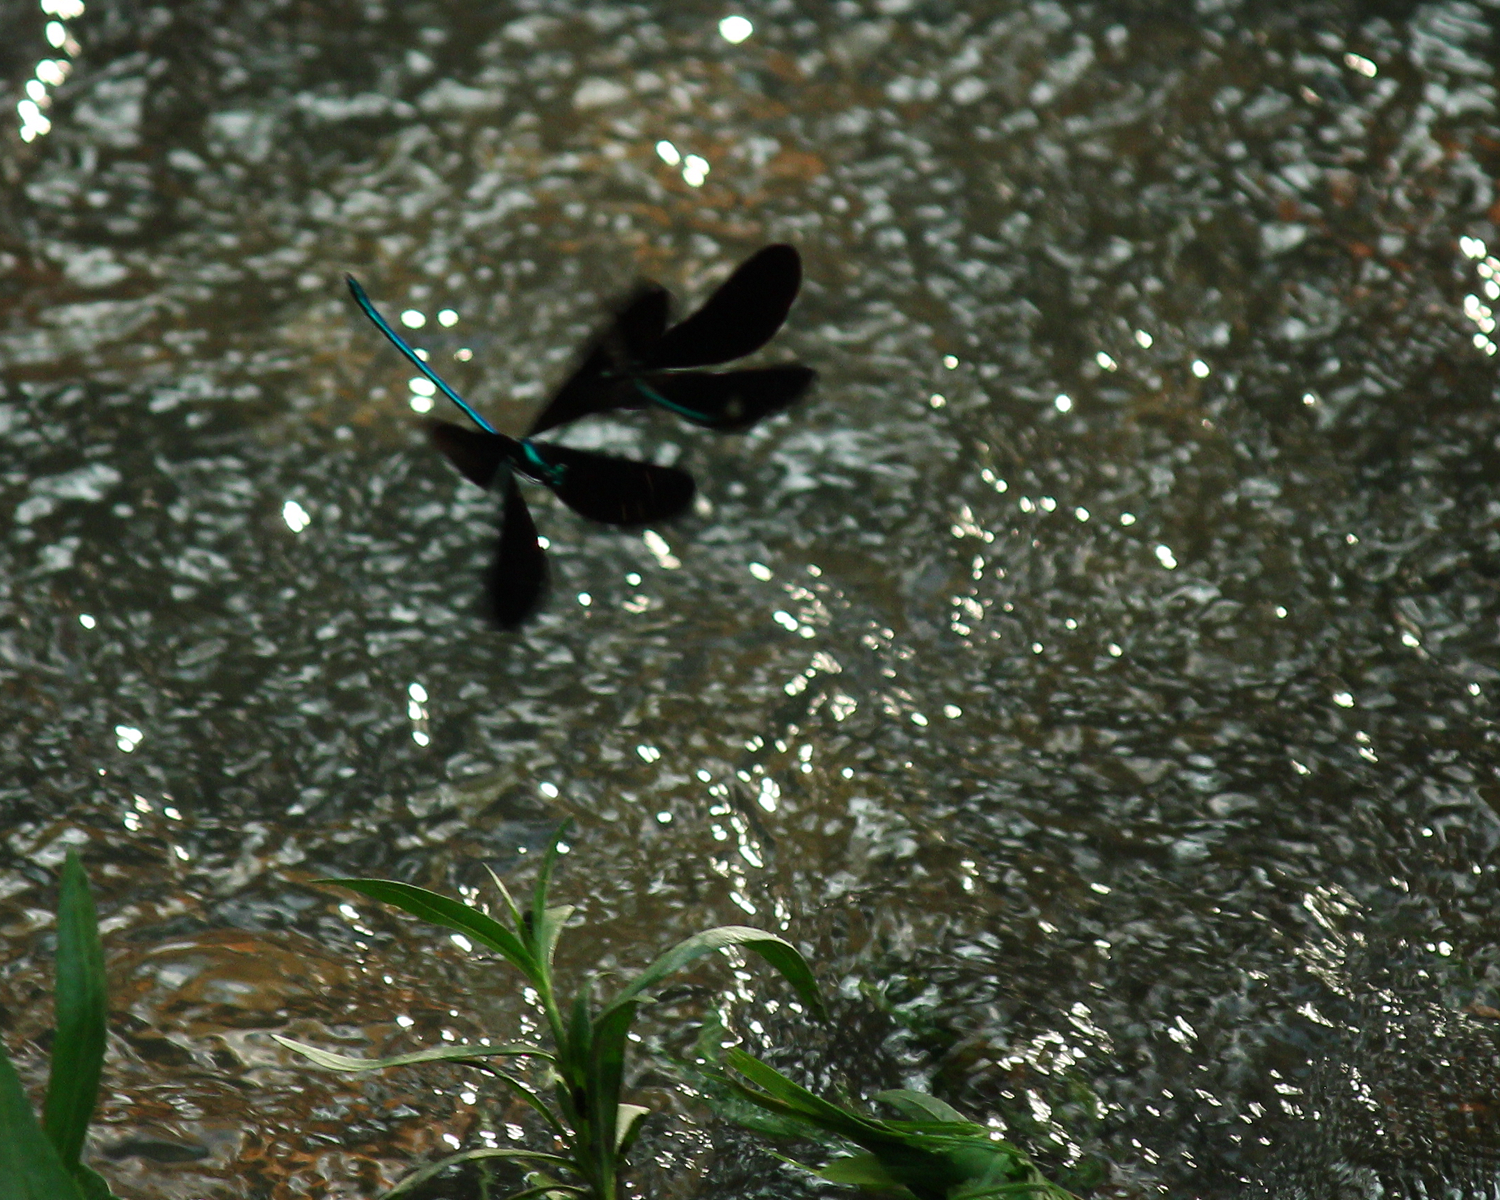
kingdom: Animalia
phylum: Arthropoda
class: Insecta
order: Odonata
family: Calopterygidae
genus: Calopteryx
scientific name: Calopteryx maculata
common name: Ebony jewelwing
